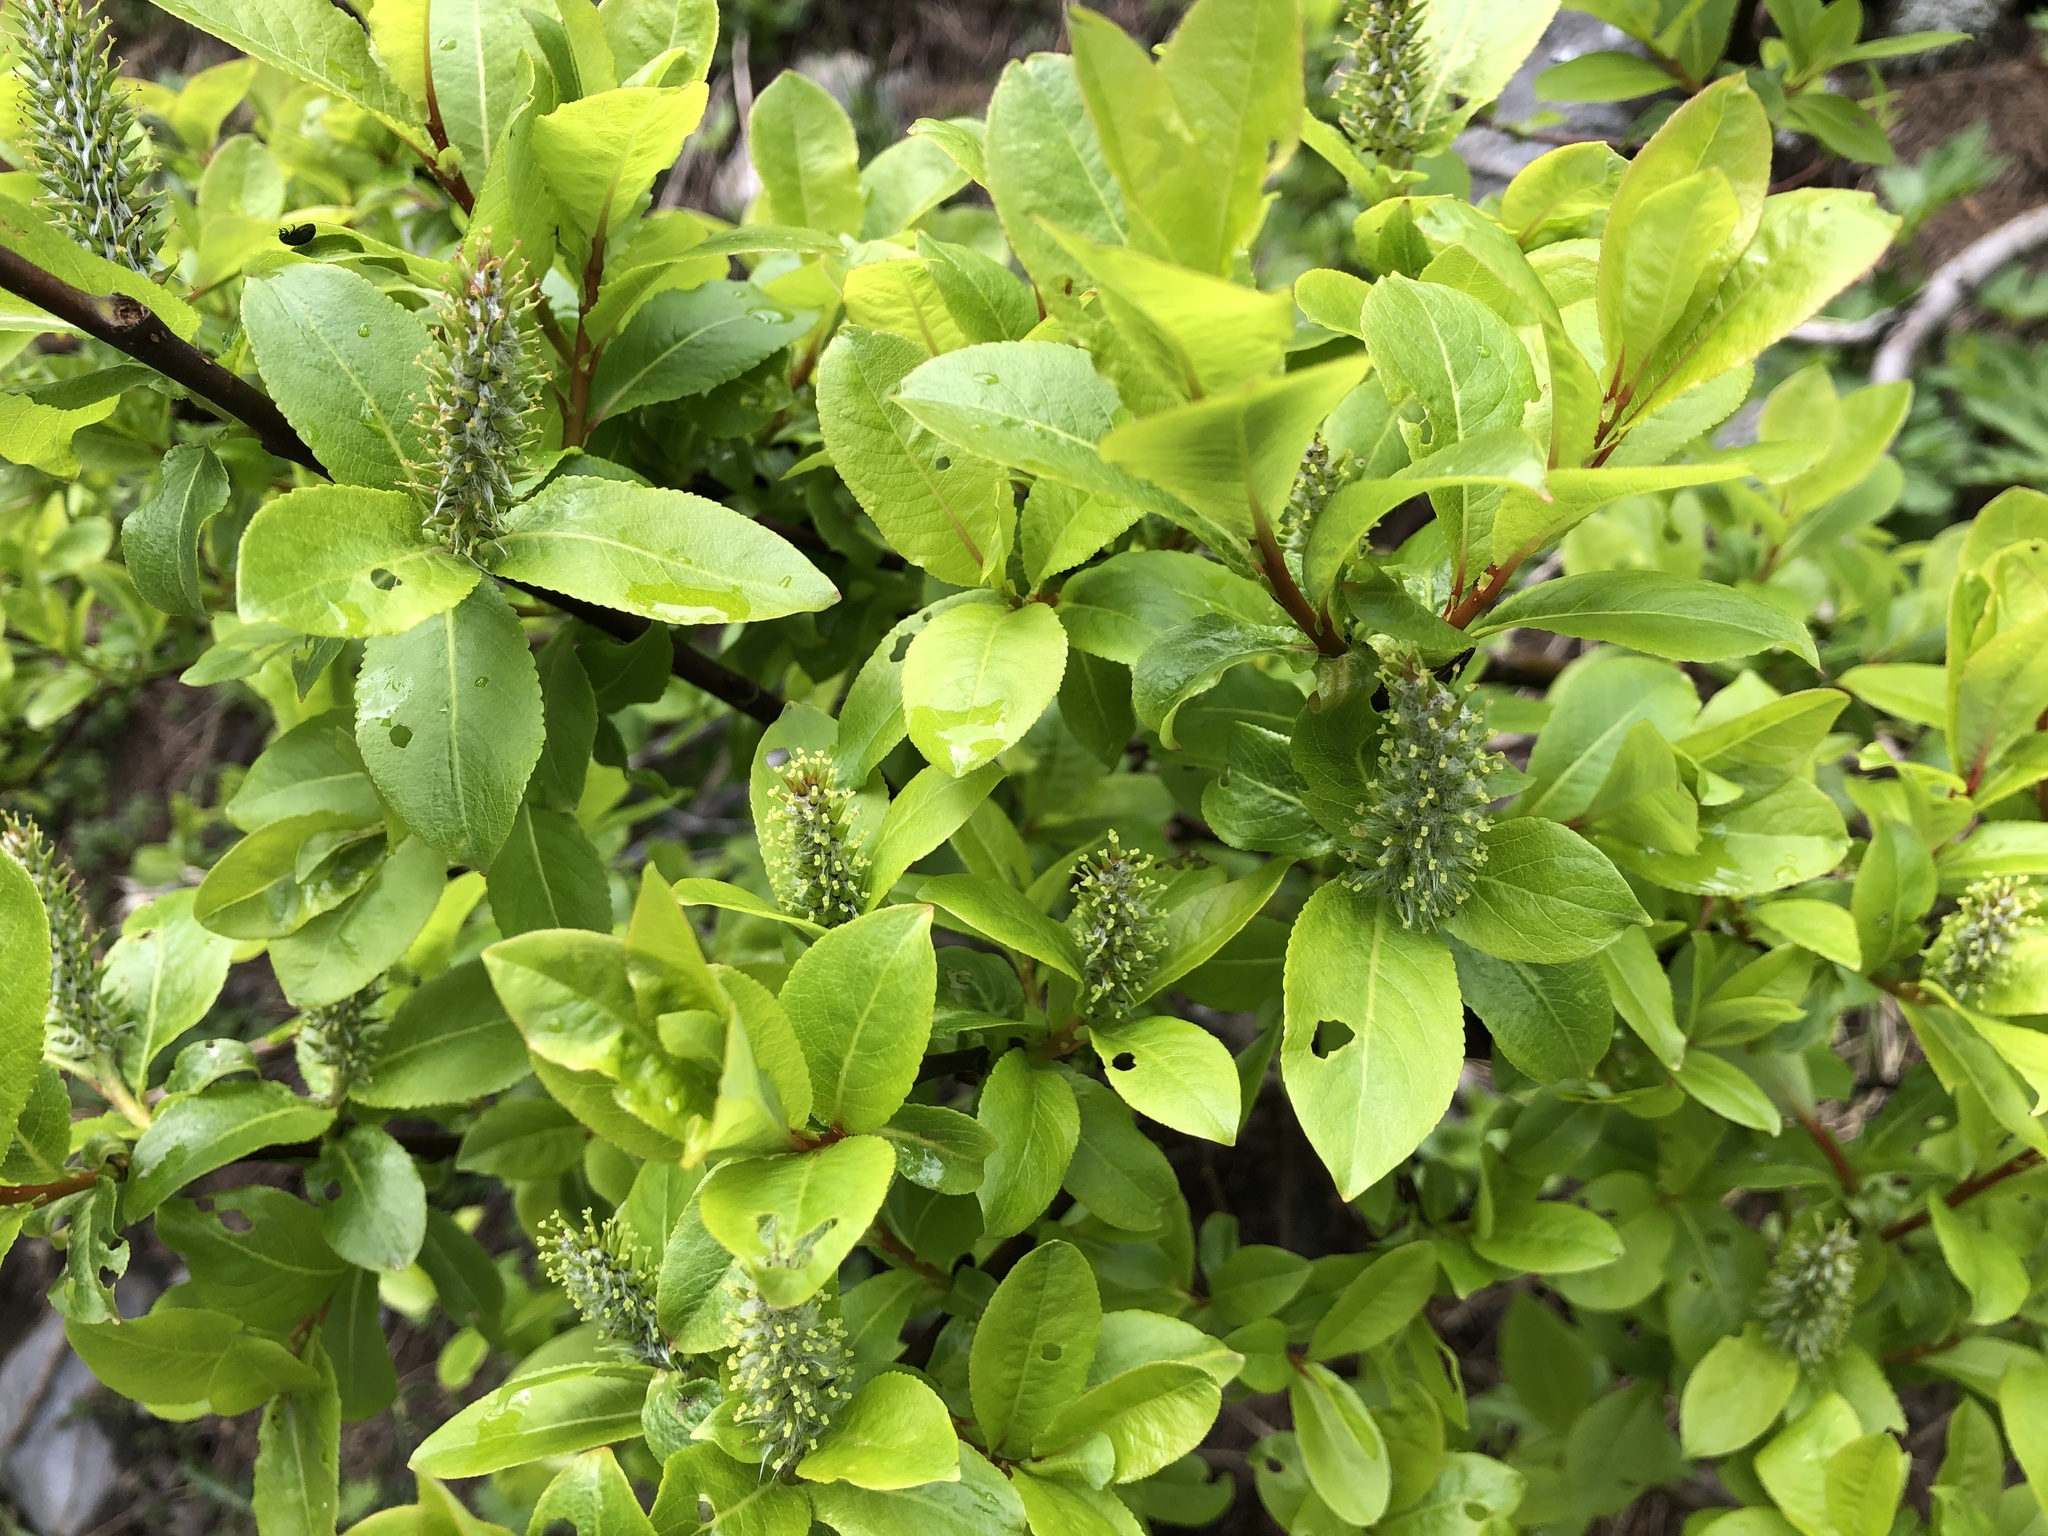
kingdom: Plantae
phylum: Tracheophyta
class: Magnoliopsida
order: Malpighiales
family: Salicaceae
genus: Salix
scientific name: Salix hastata
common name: Halberd willow
